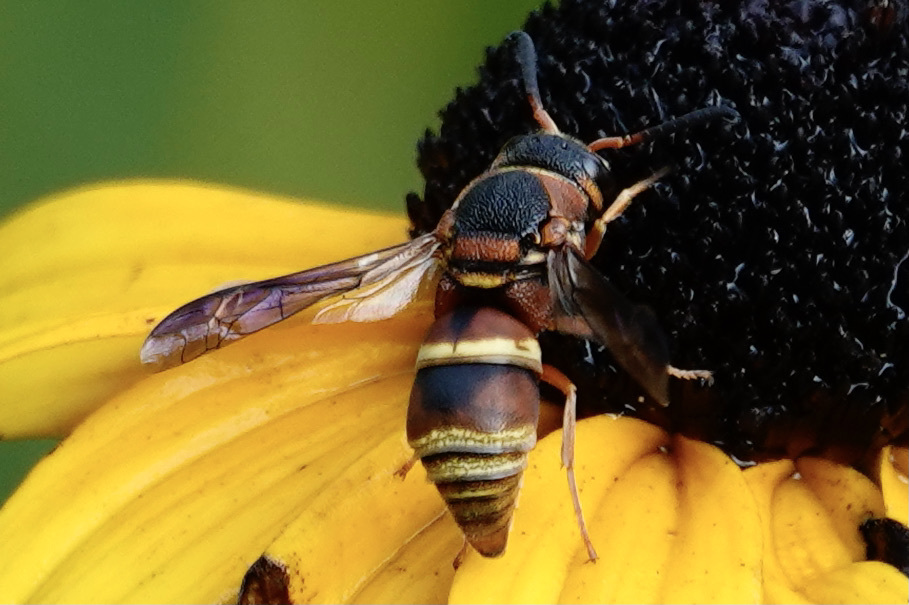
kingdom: Animalia
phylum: Arthropoda
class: Insecta
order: Hymenoptera
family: Eumenidae
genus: Euodynerus
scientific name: Euodynerus hidalgo
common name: Wasp
